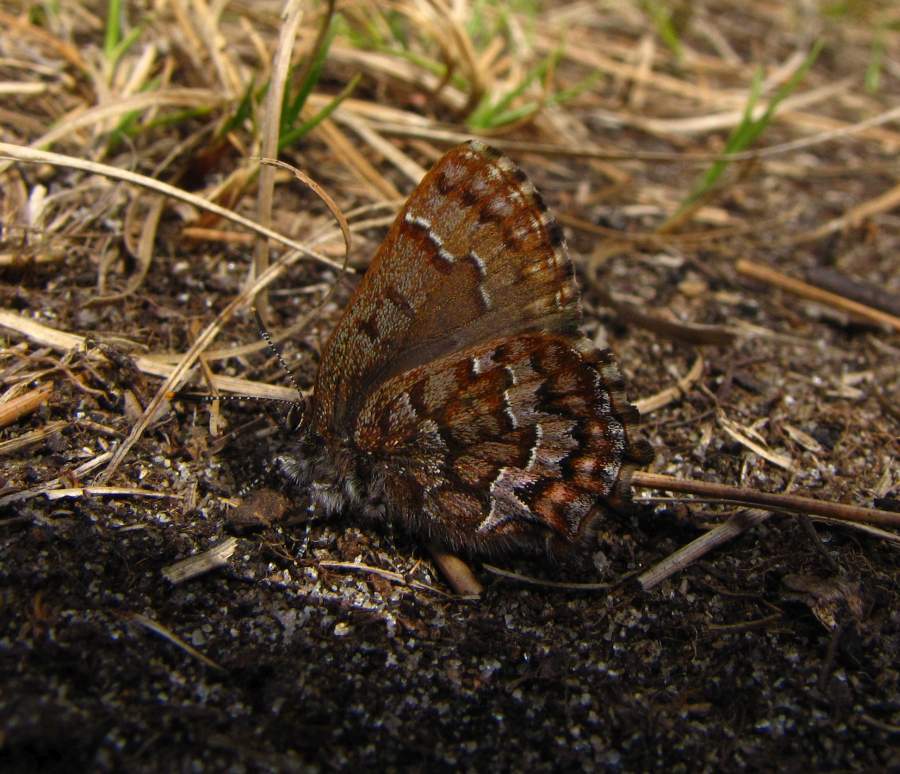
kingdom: Animalia
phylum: Arthropoda
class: Insecta
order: Lepidoptera
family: Lycaenidae
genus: Incisalia
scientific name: Incisalia niphon
